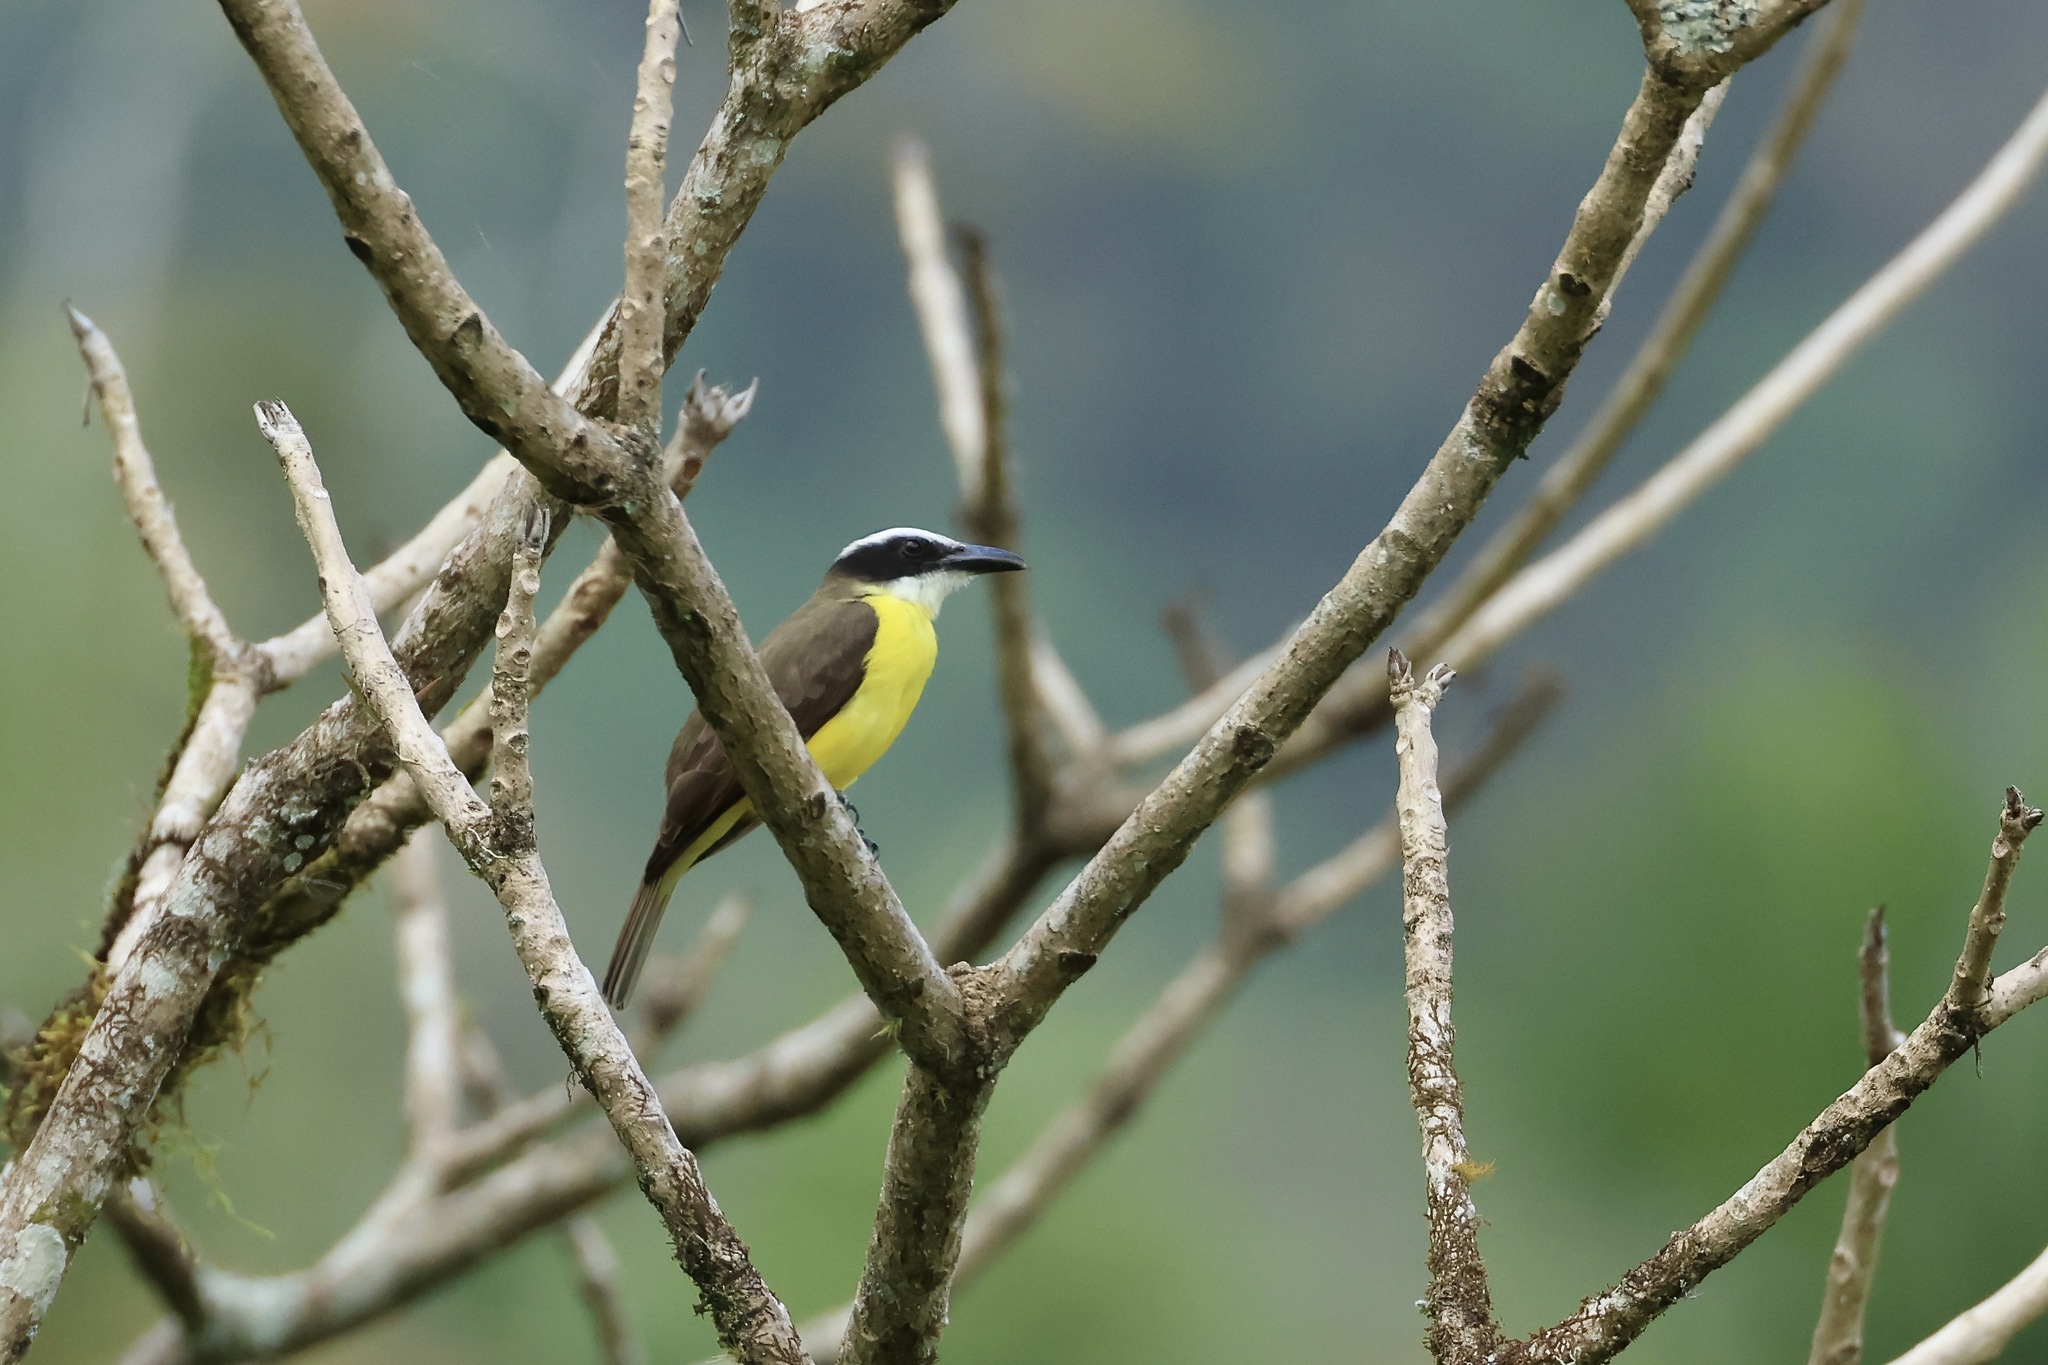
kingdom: Animalia
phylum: Chordata
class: Aves
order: Passeriformes
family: Tyrannidae
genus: Megarynchus
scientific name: Megarynchus pitangua
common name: Boat-billed flycatcher
